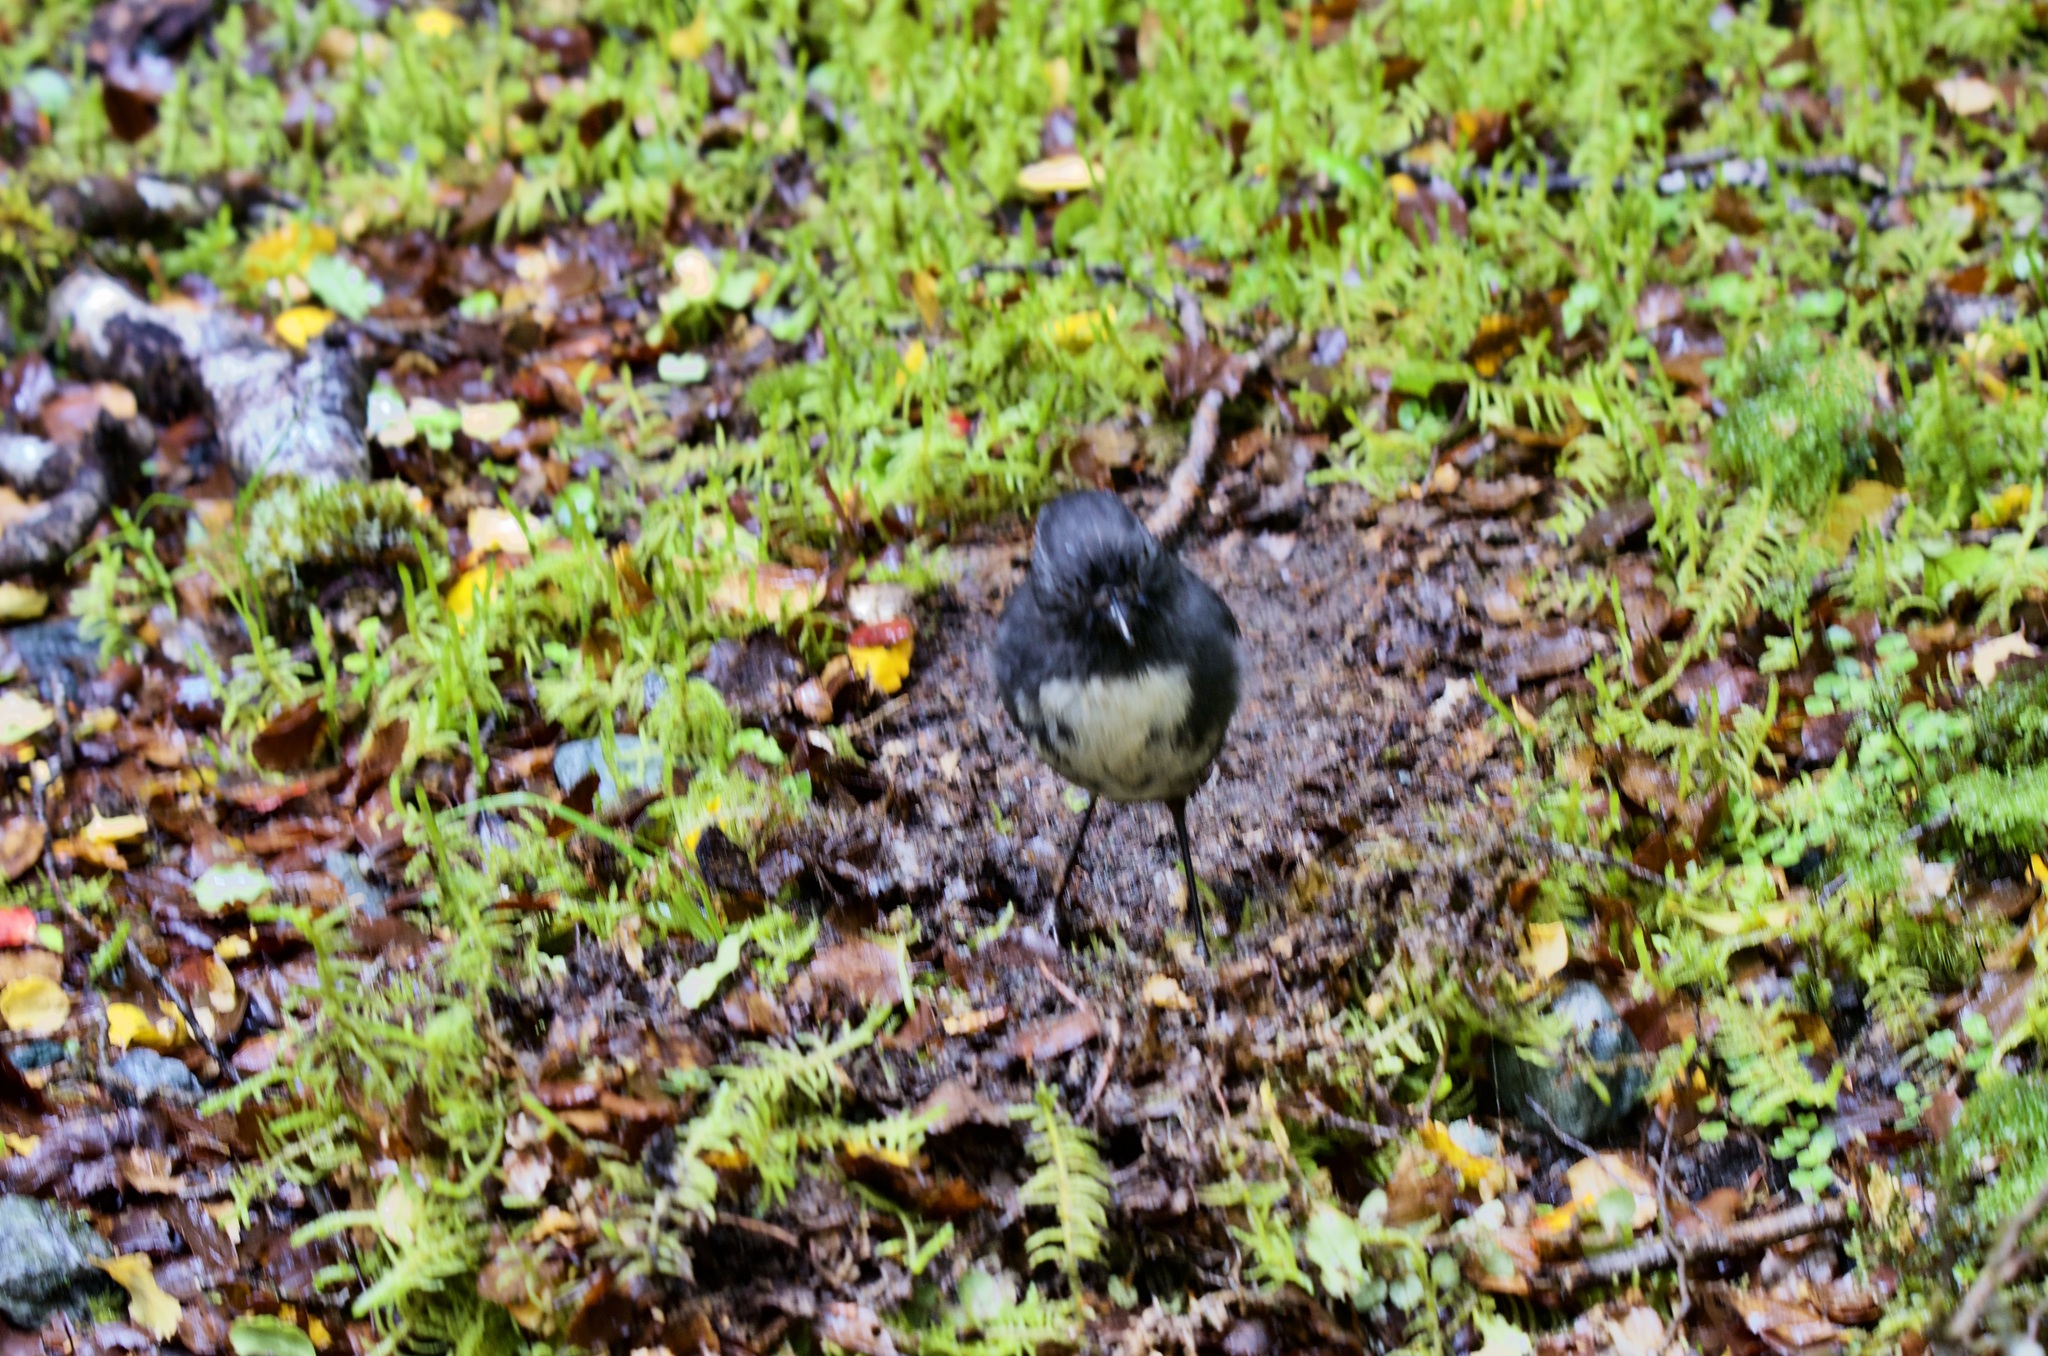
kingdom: Animalia
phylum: Chordata
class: Aves
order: Passeriformes
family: Petroicidae
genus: Petroica
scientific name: Petroica australis
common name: New zealand robin
